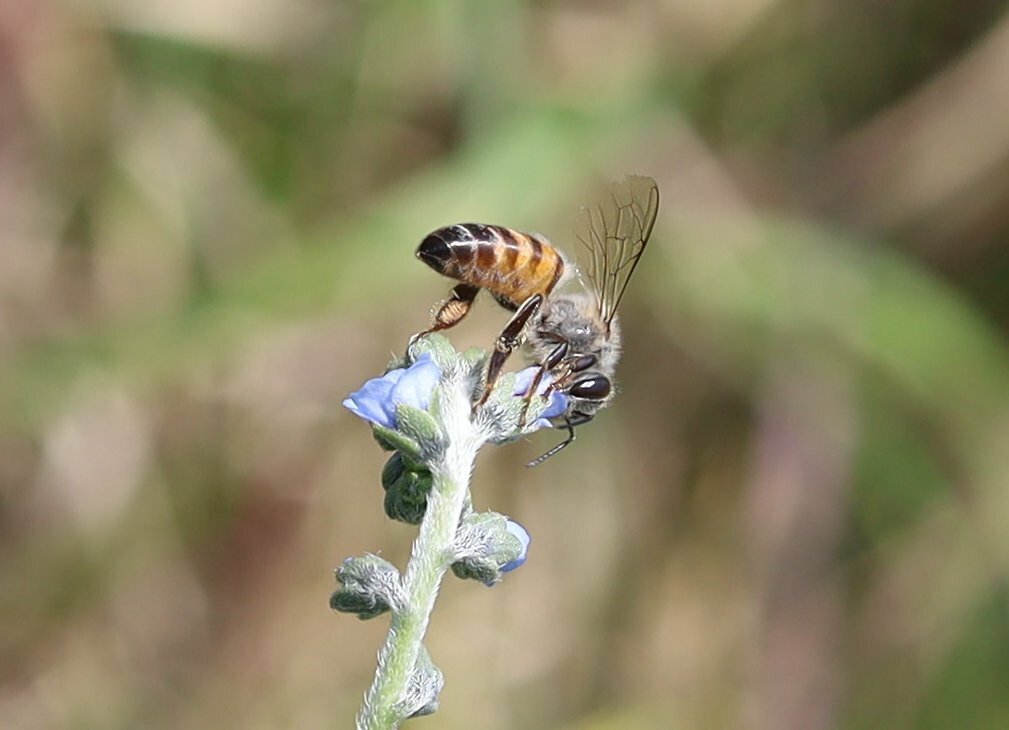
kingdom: Animalia
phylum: Arthropoda
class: Insecta
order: Hymenoptera
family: Apidae
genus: Apis
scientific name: Apis mellifera
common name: Honey bee
